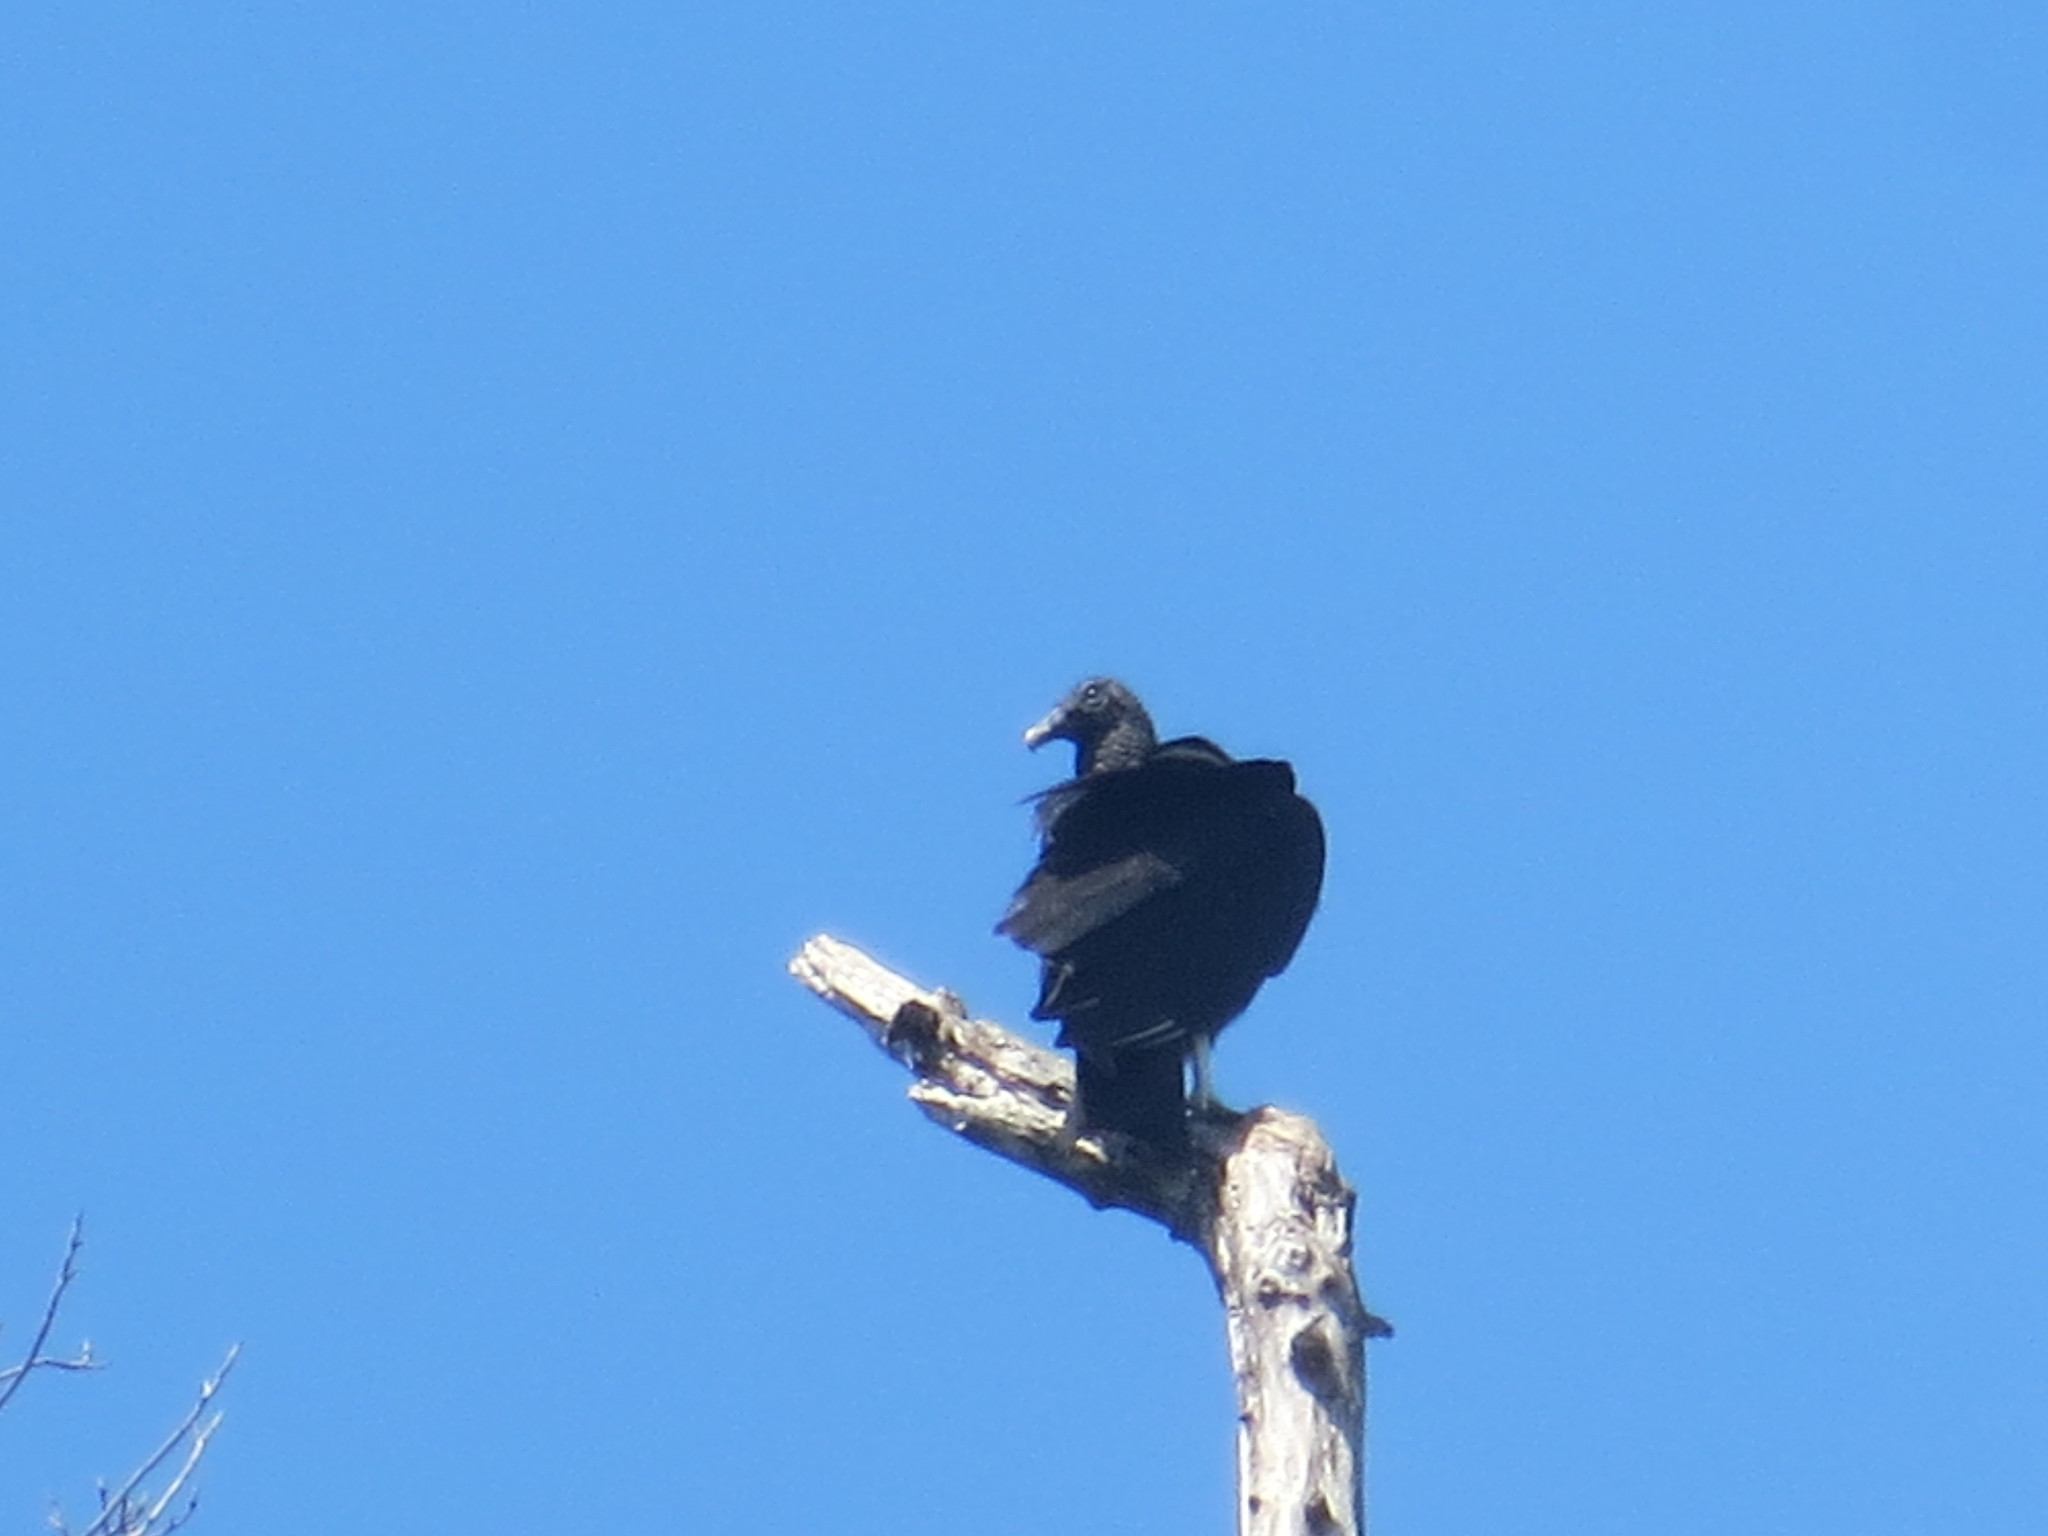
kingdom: Animalia
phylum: Chordata
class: Aves
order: Accipitriformes
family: Cathartidae
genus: Coragyps
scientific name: Coragyps atratus
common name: Black vulture
